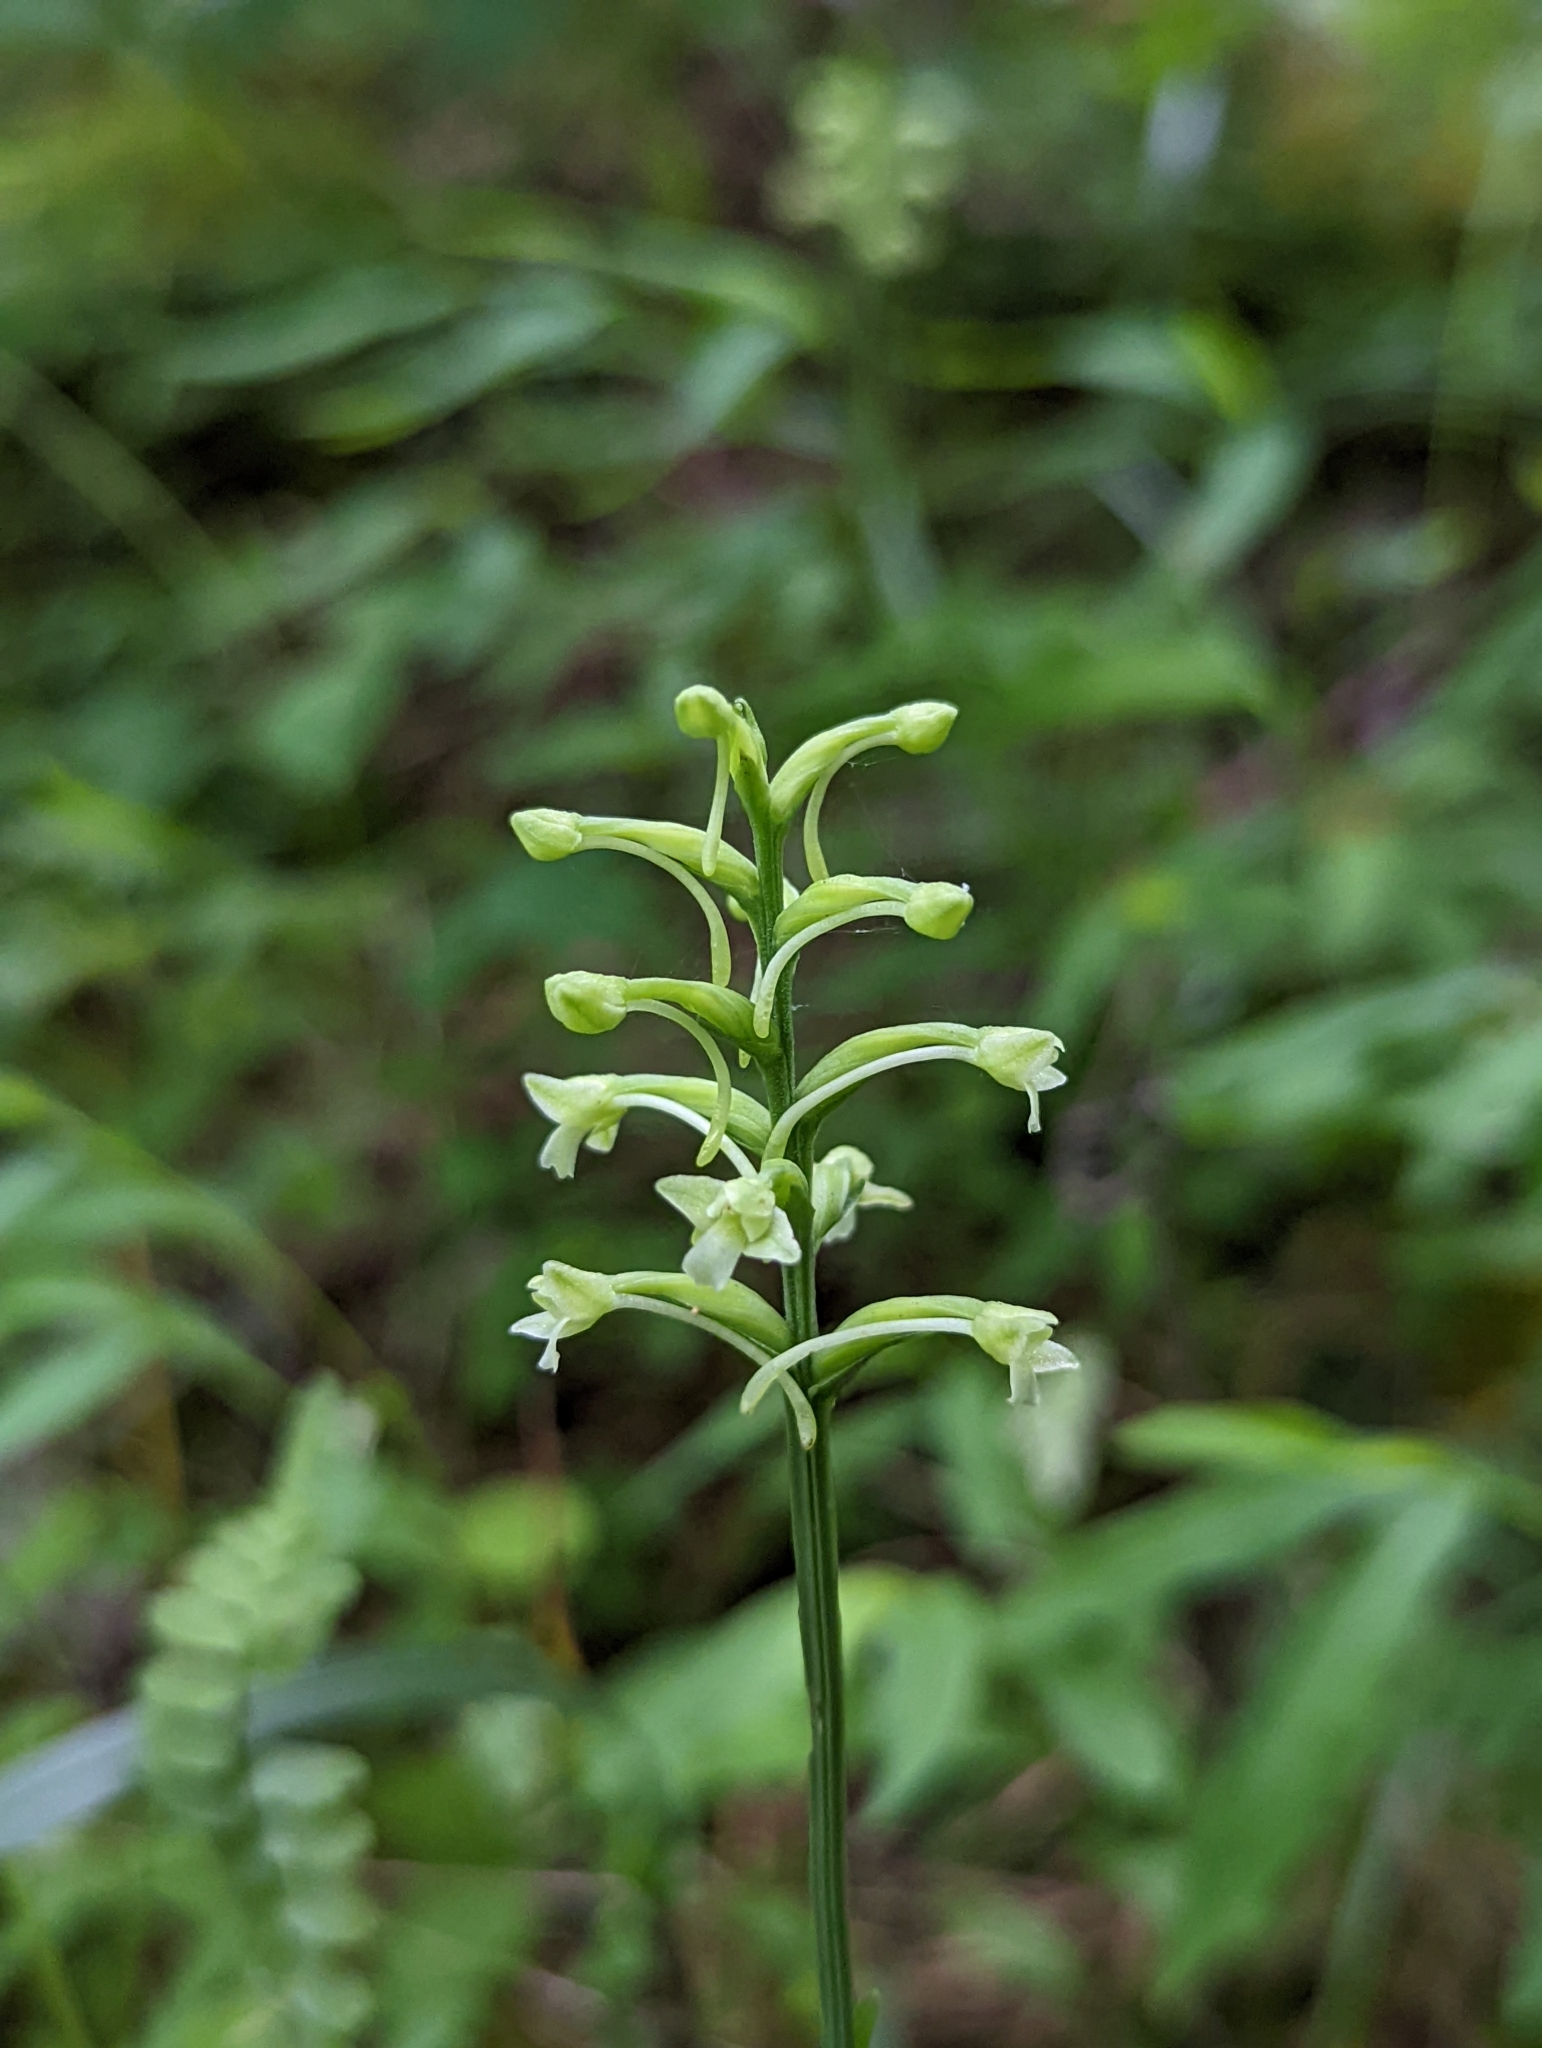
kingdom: Plantae
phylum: Tracheophyta
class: Liliopsida
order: Asparagales
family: Orchidaceae
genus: Platanthera
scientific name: Platanthera clavellata
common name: Club-spur orchid
